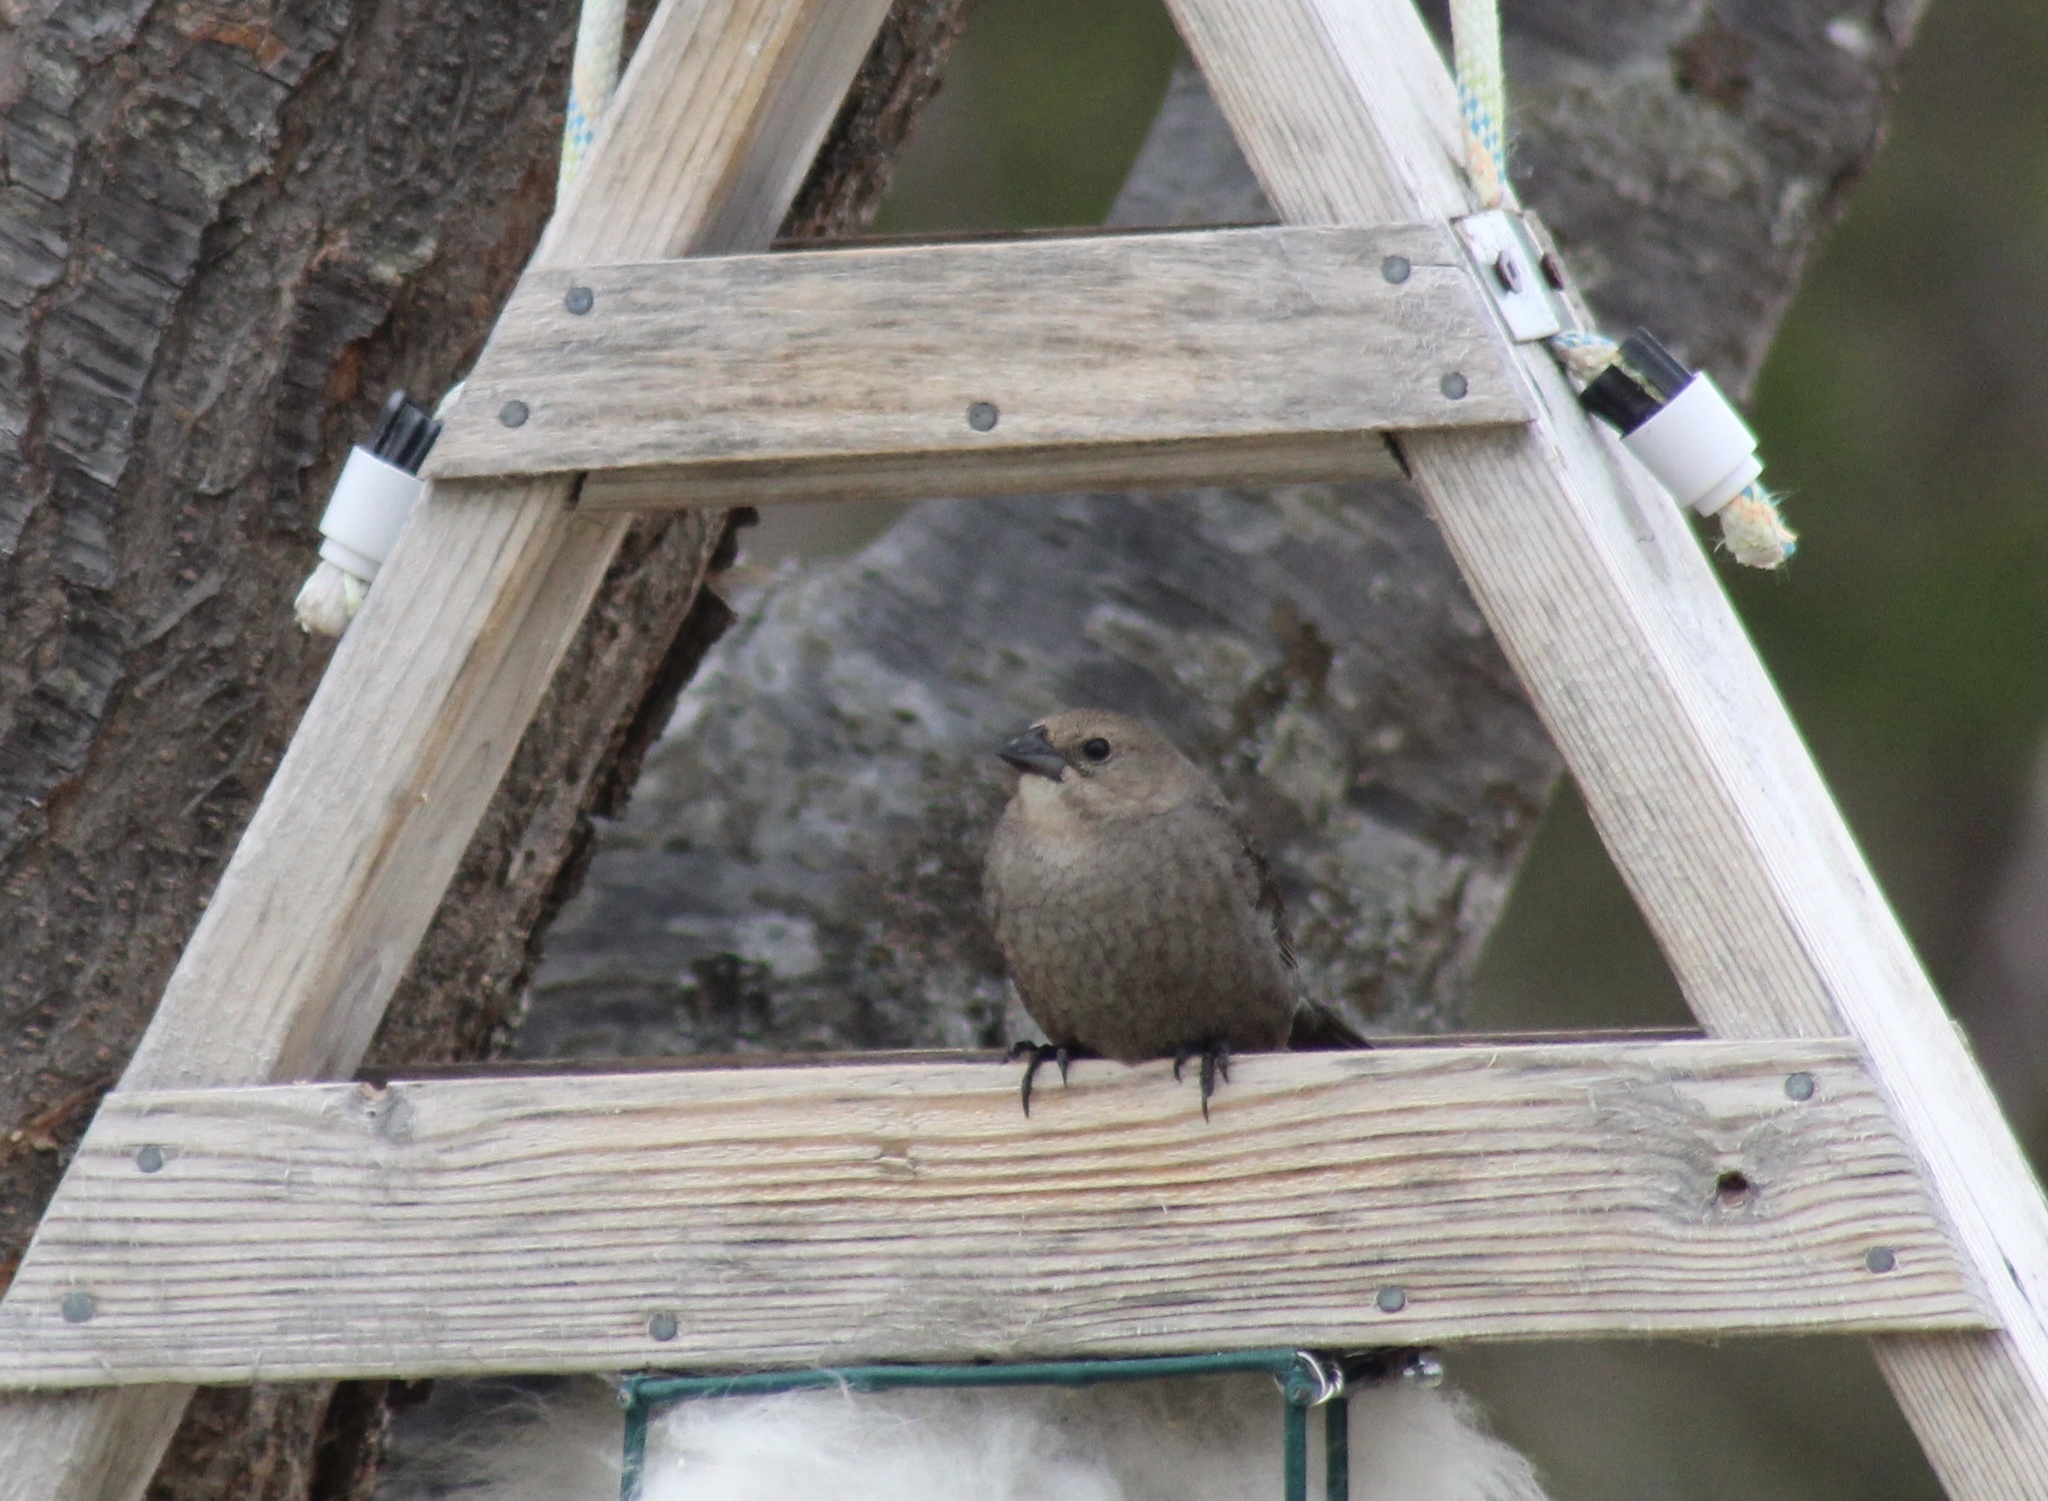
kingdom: Animalia
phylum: Chordata
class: Aves
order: Passeriformes
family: Icteridae
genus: Molothrus
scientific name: Molothrus ater
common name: Brown-headed cowbird
